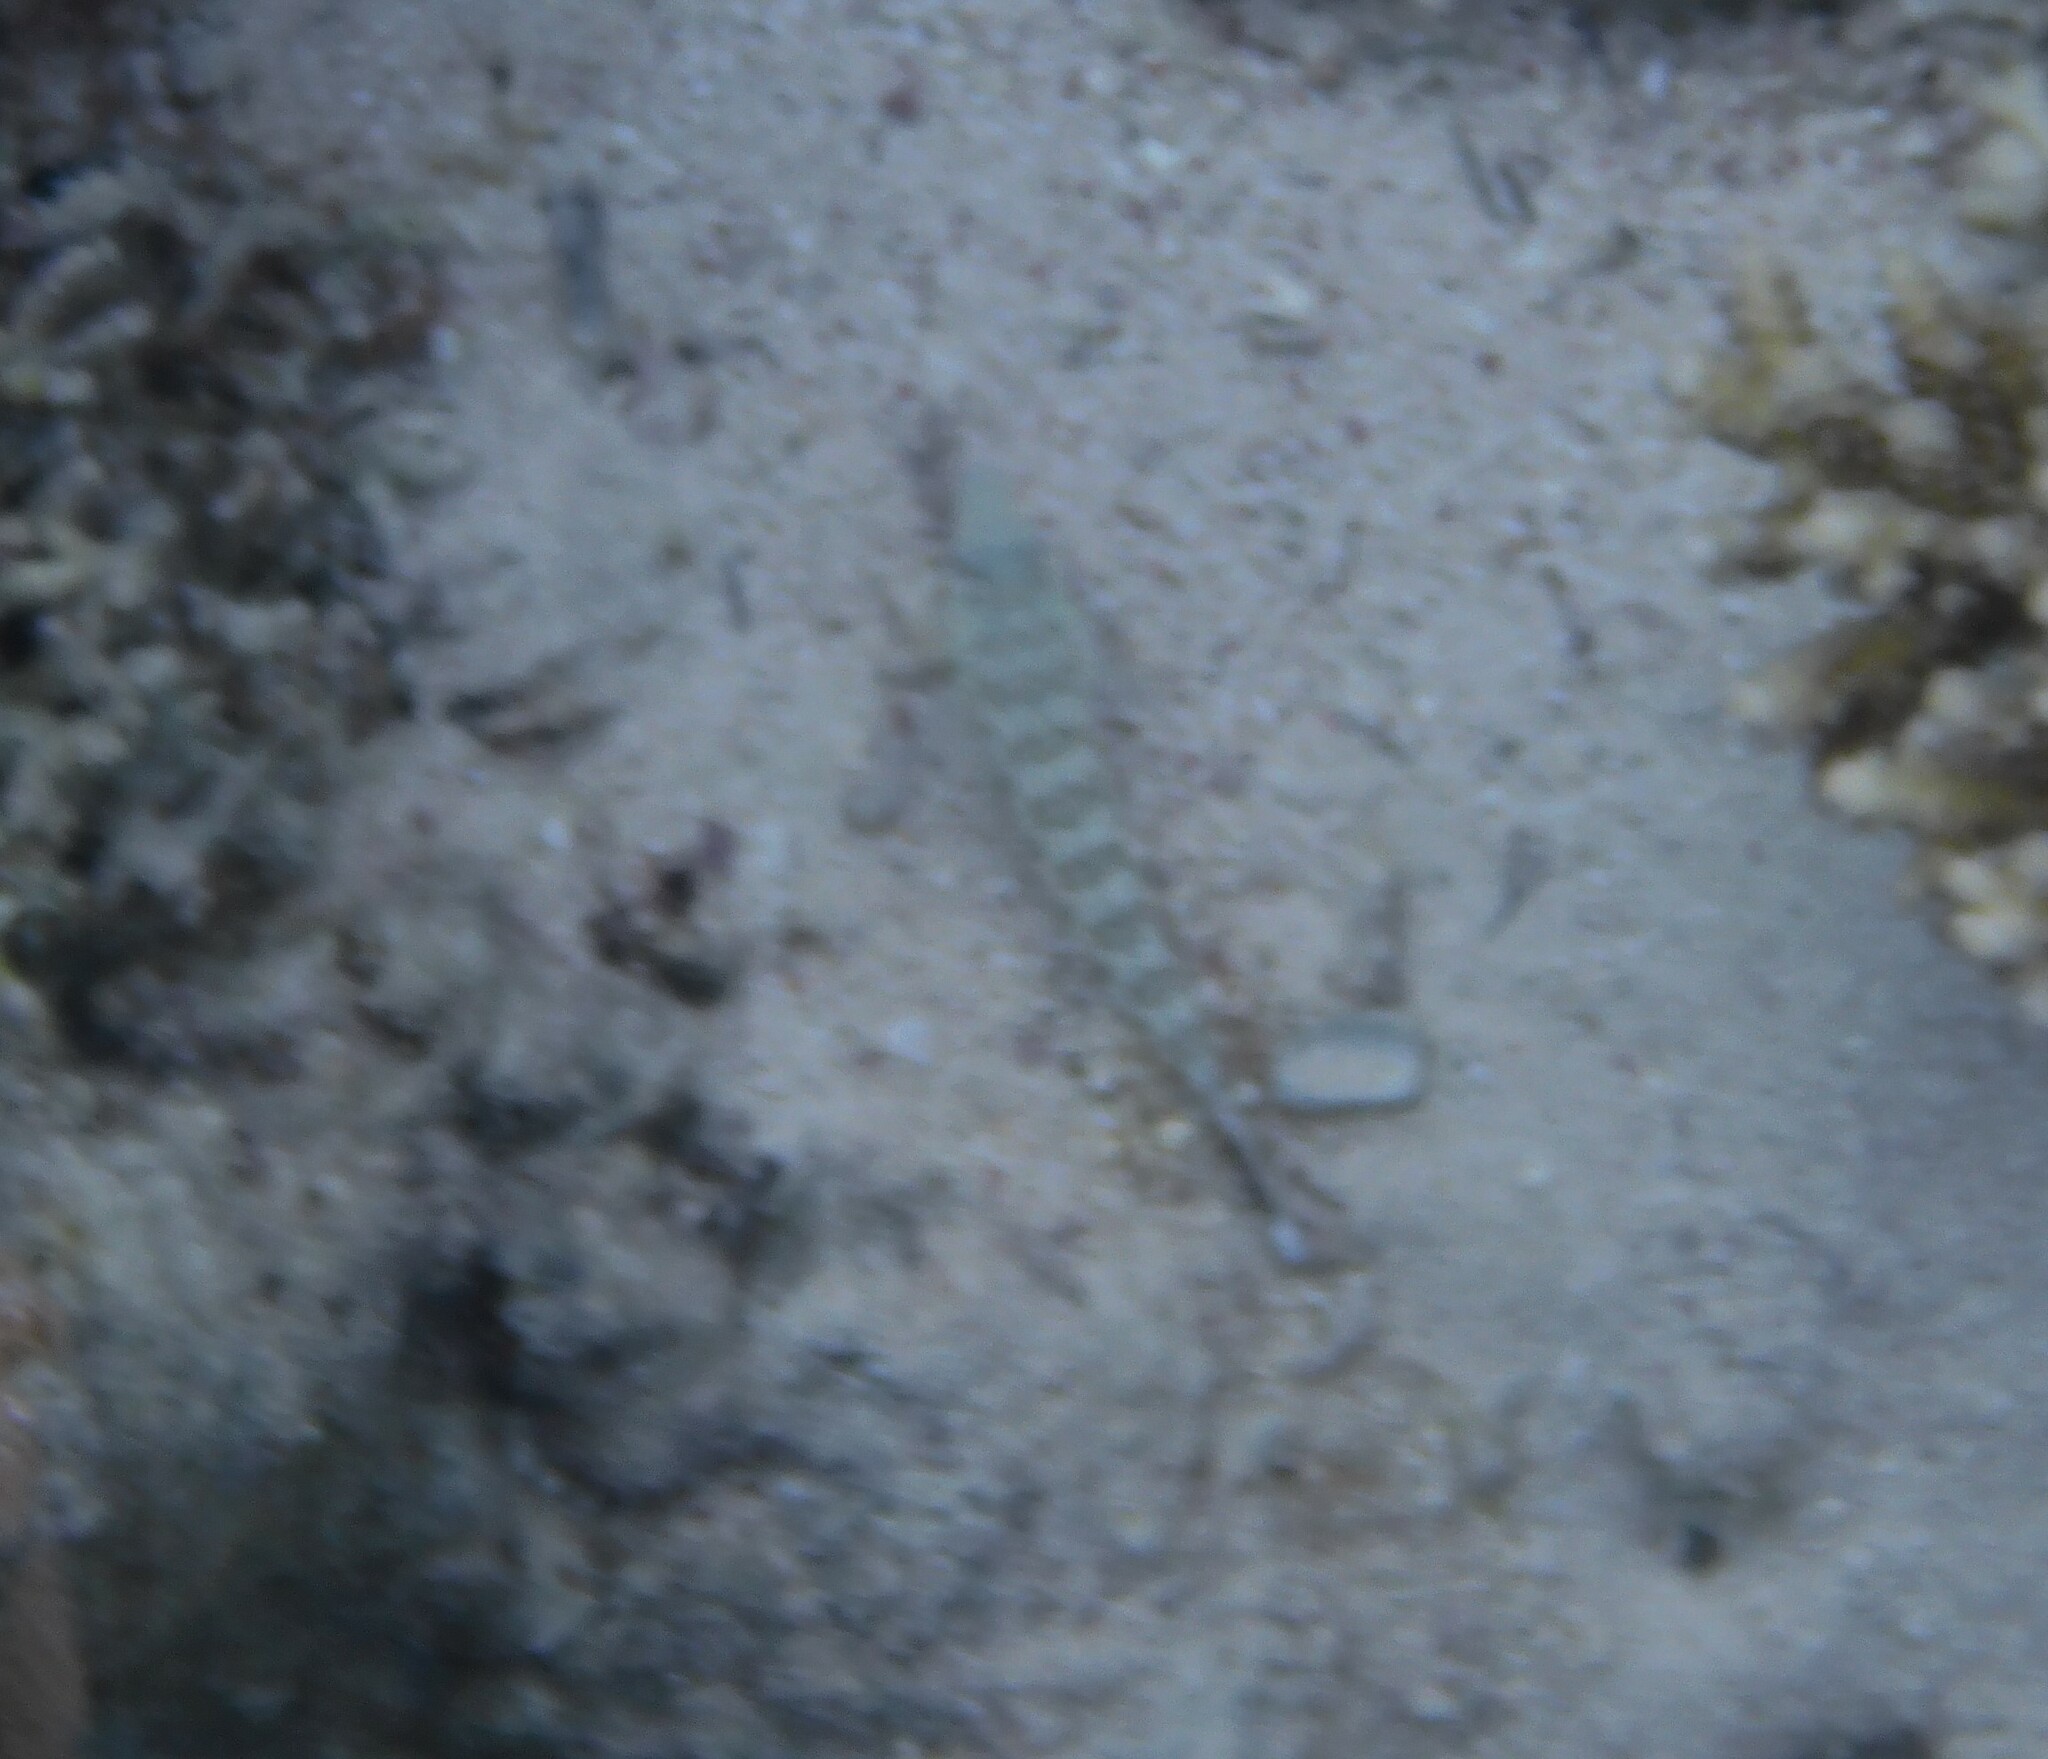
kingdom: Animalia
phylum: Chordata
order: Perciformes
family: Pinguipedidae
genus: Parapercis
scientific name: Parapercis hexophtalma
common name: Speckled sandperch
